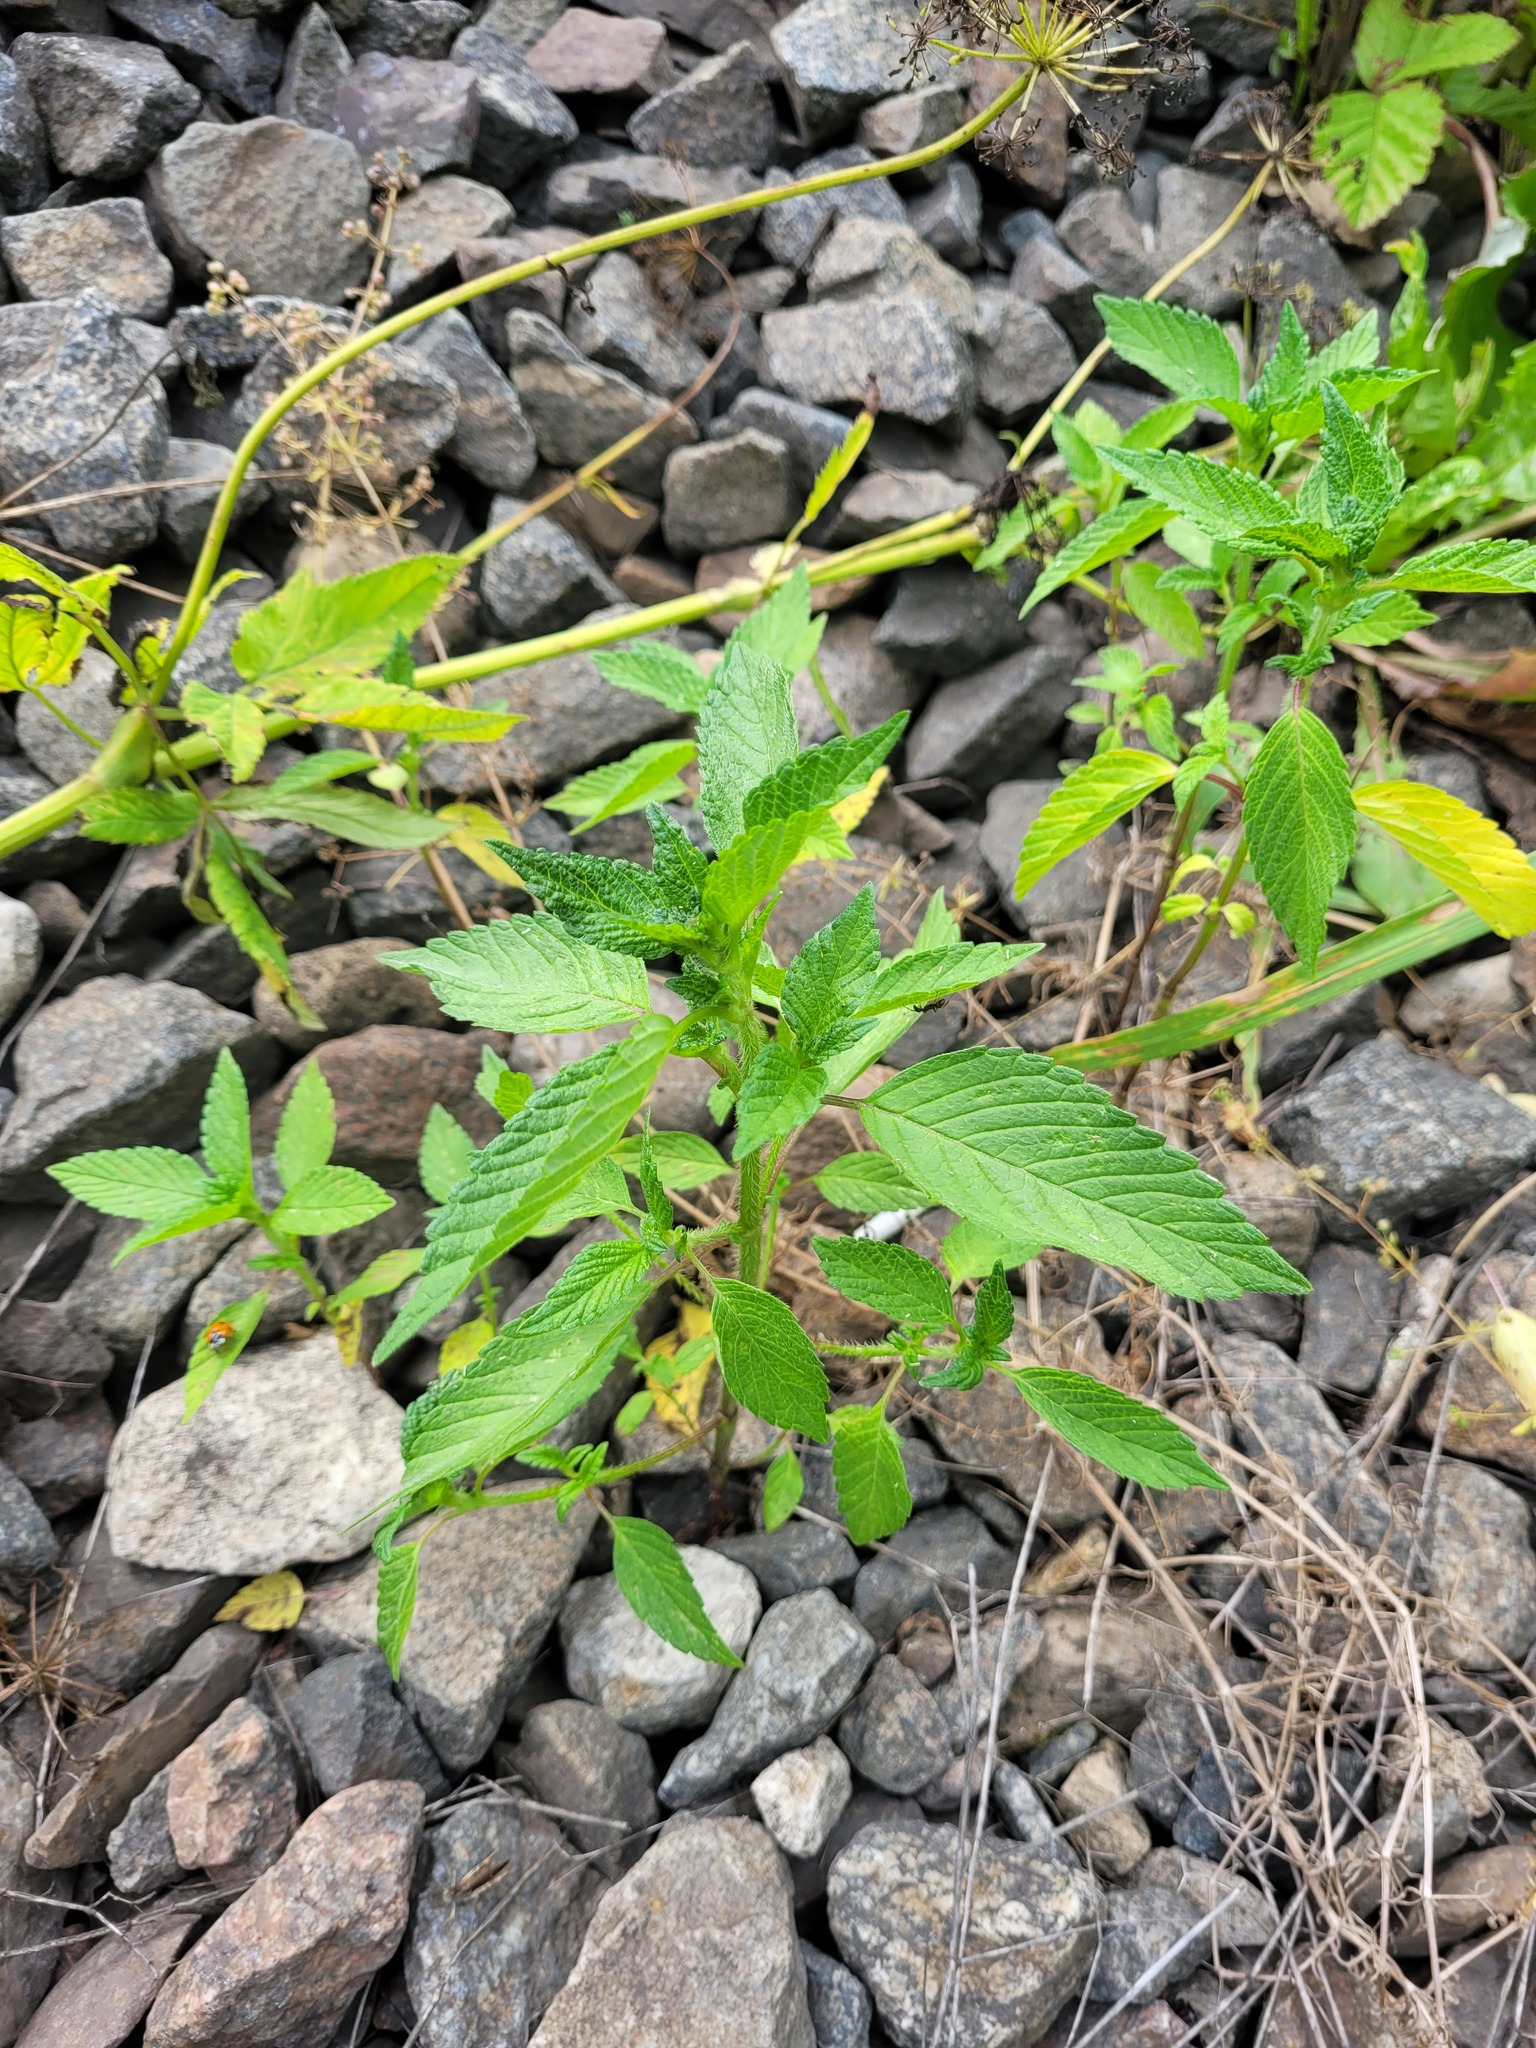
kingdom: Plantae
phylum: Tracheophyta
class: Magnoliopsida
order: Lamiales
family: Lamiaceae
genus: Galeopsis
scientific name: Galeopsis
